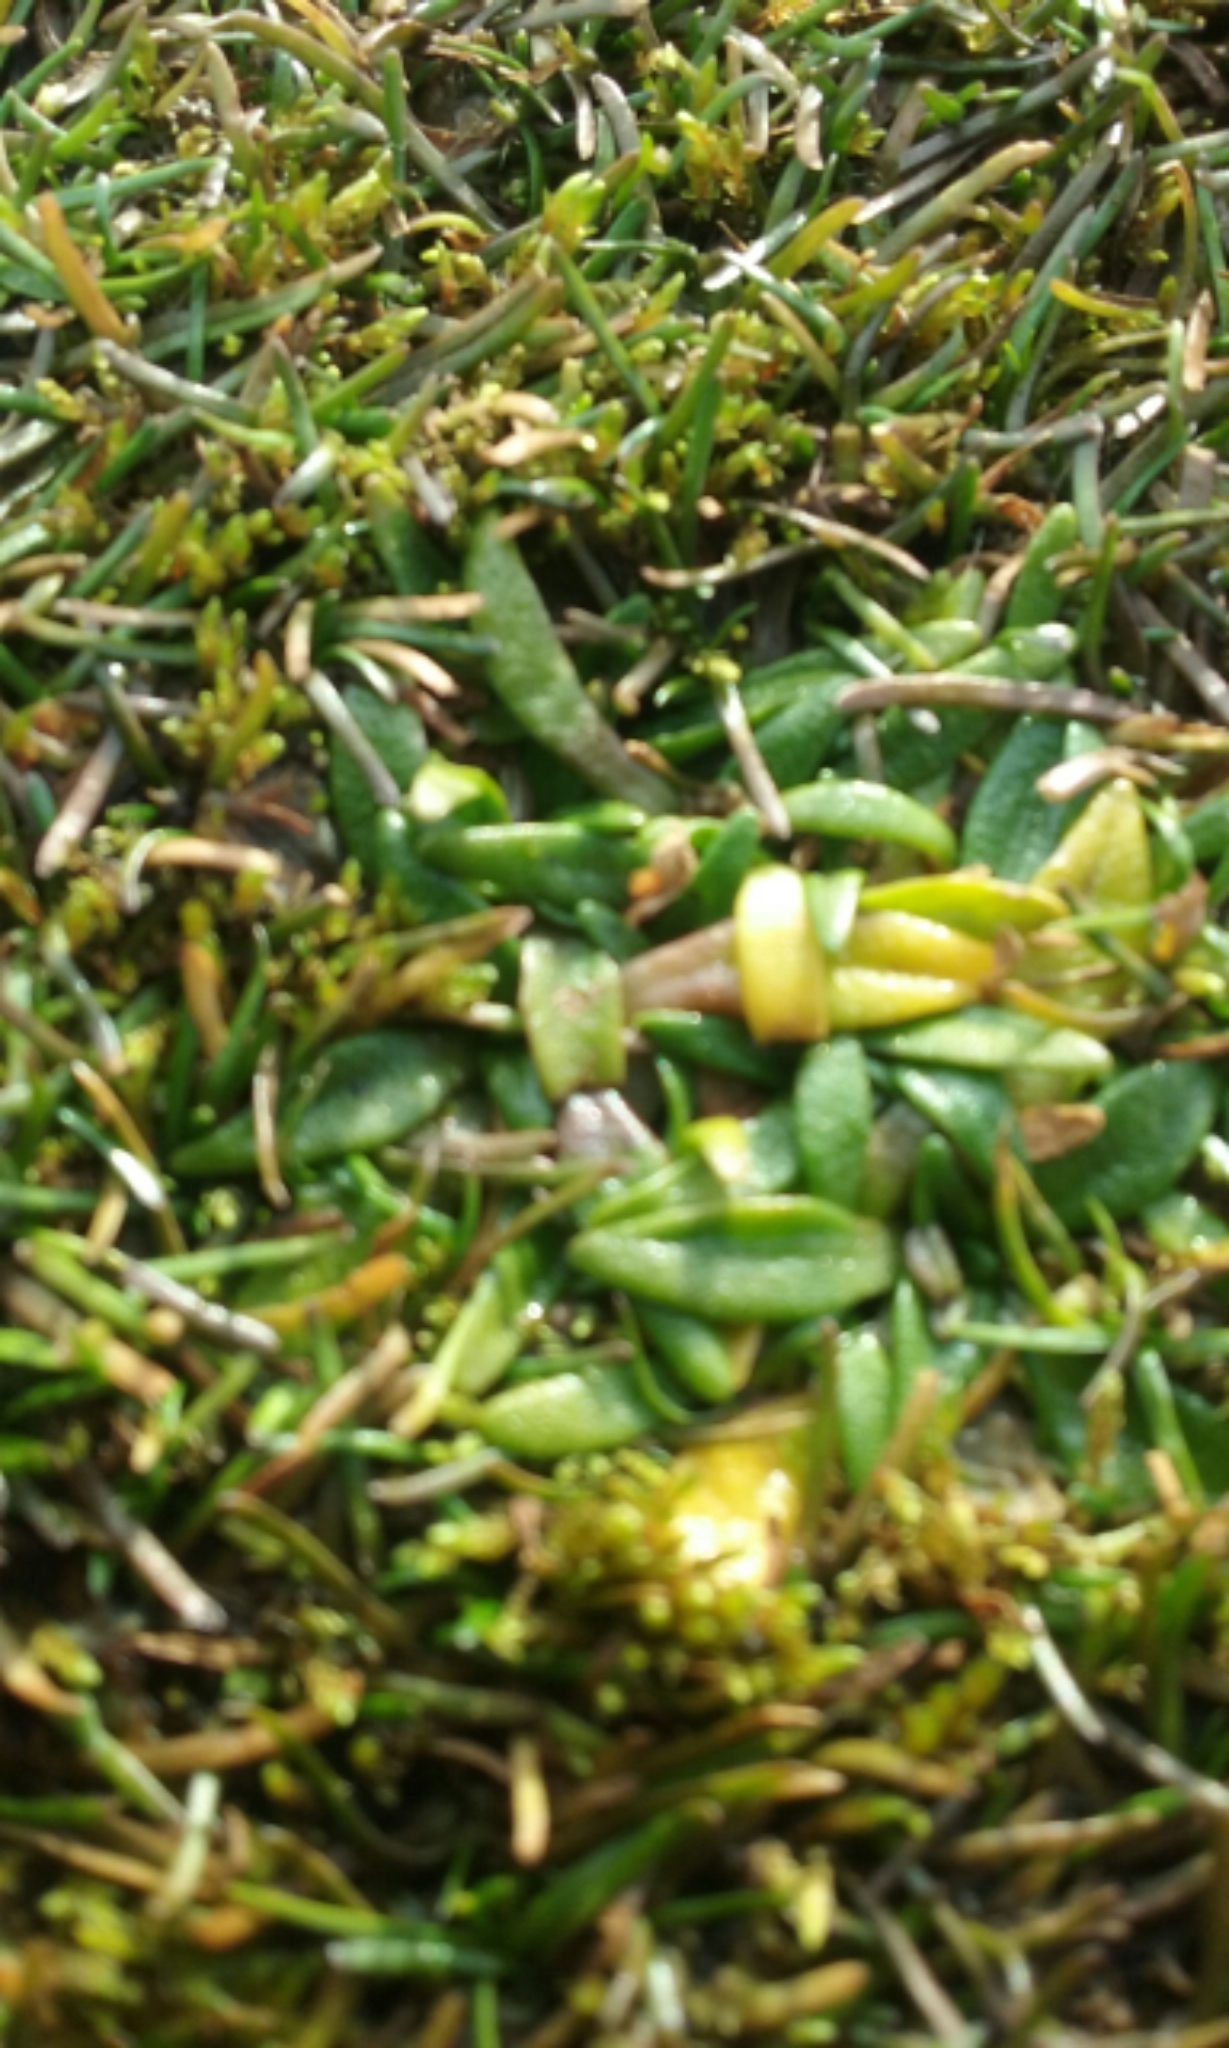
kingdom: Plantae
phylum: Tracheophyta
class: Magnoliopsida
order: Lamiales
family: Plantaginaceae
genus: Plantago
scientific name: Plantago triandra
